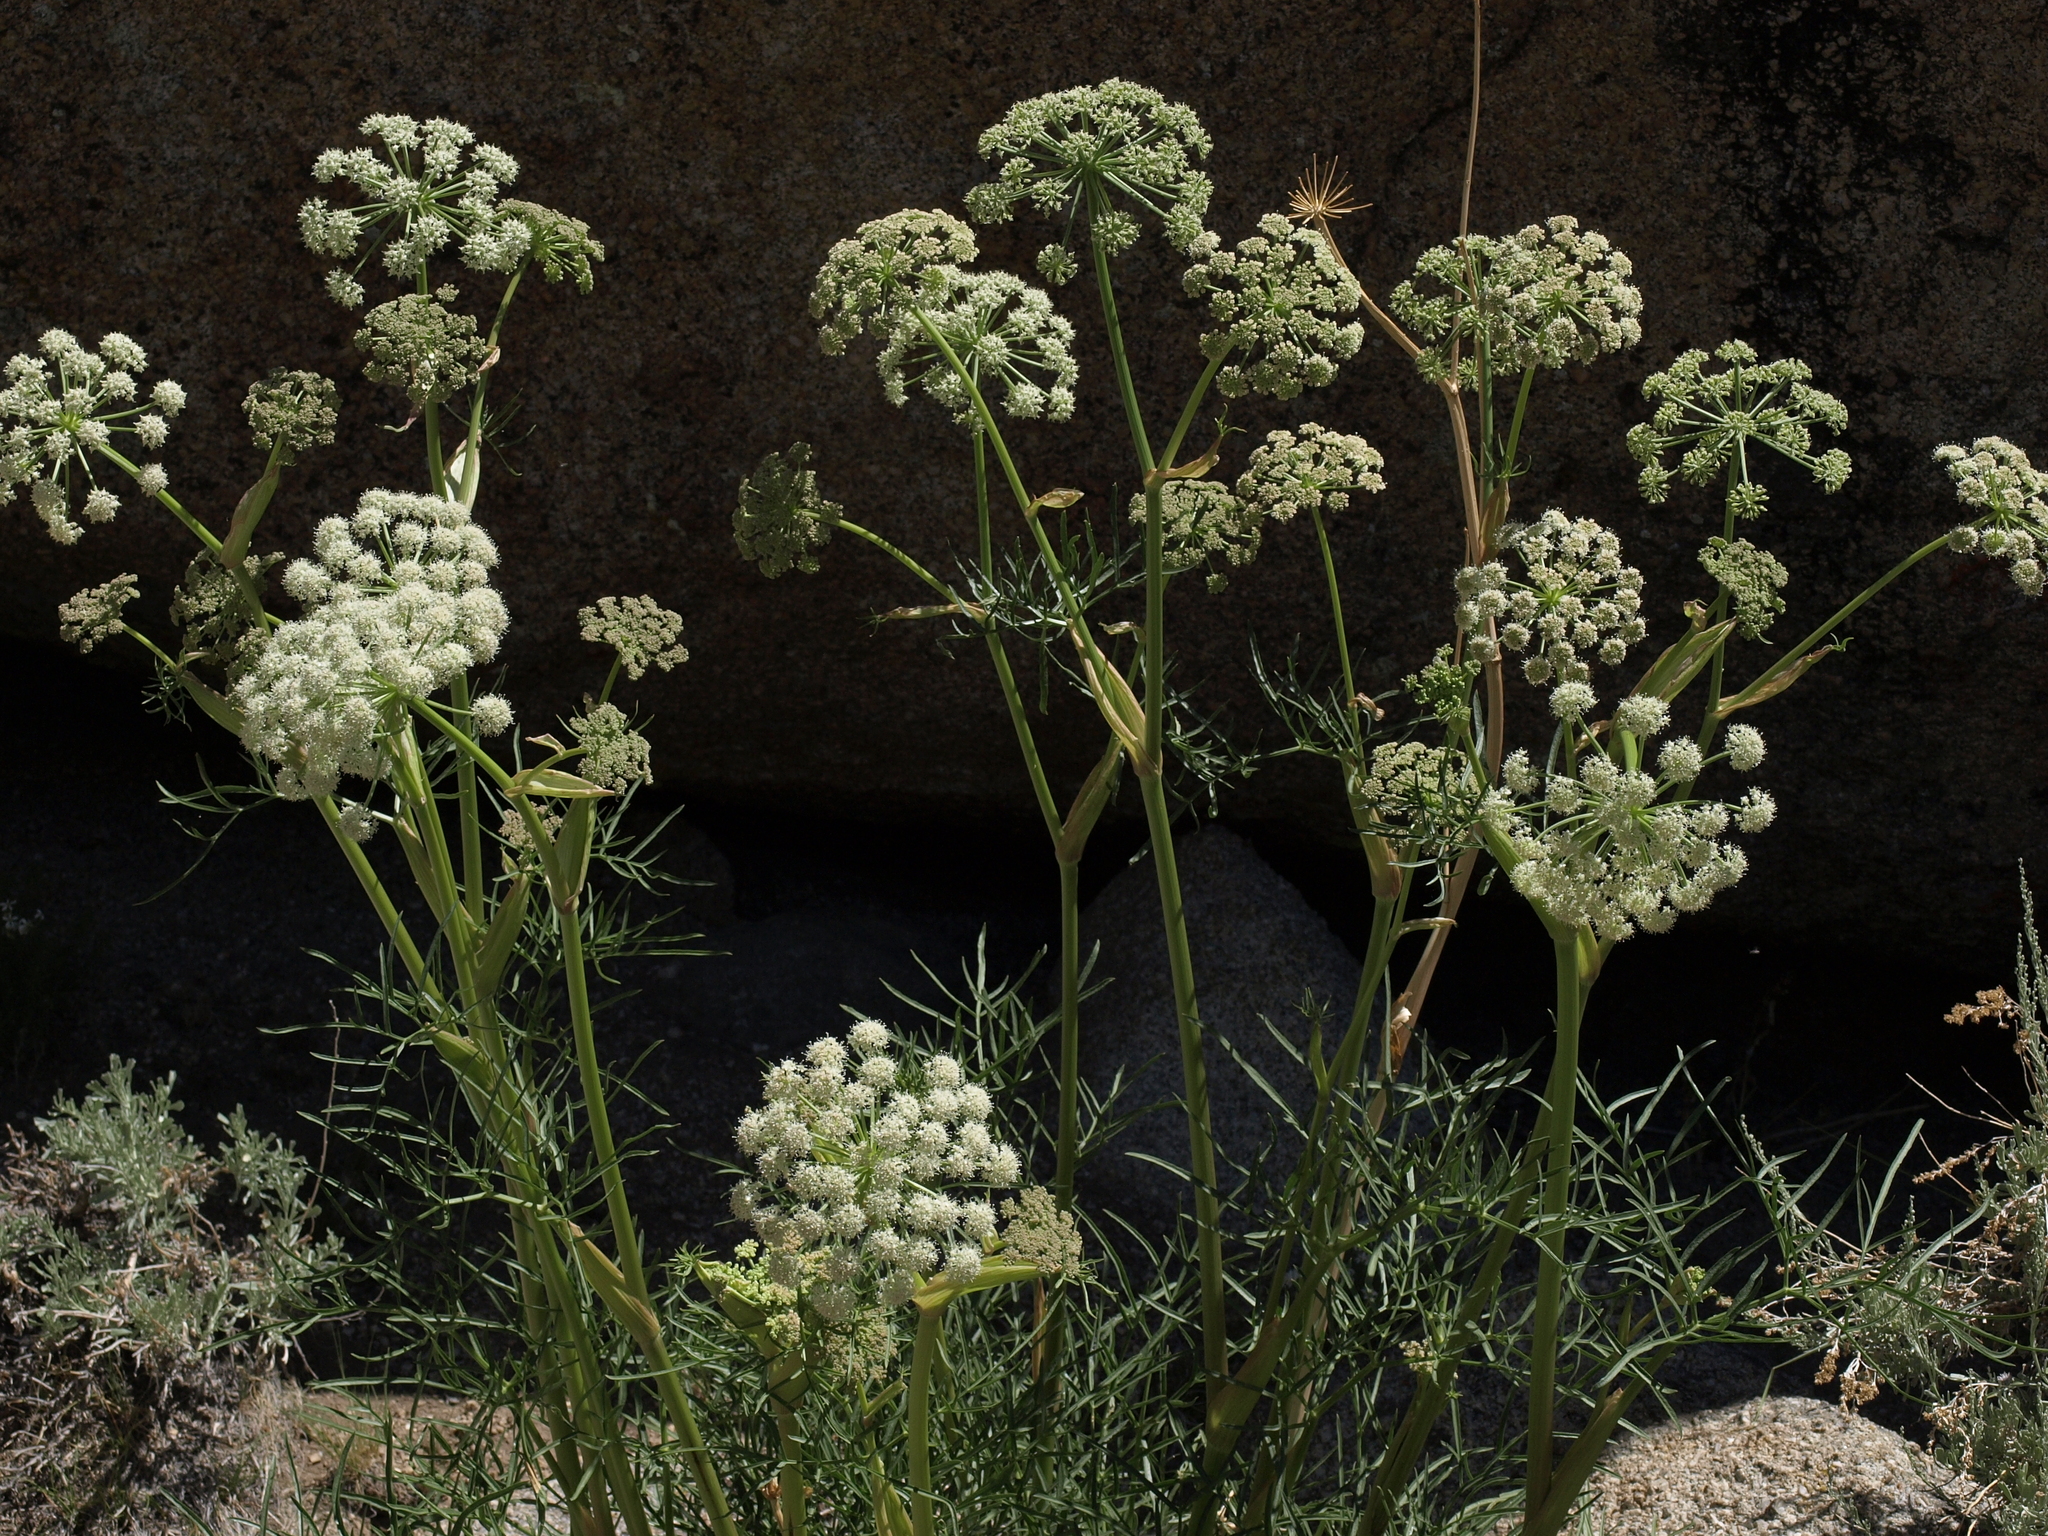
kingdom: Plantae
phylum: Tracheophyta
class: Magnoliopsida
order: Apiales
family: Apiaceae
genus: Angelica
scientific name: Angelica lineariloba
